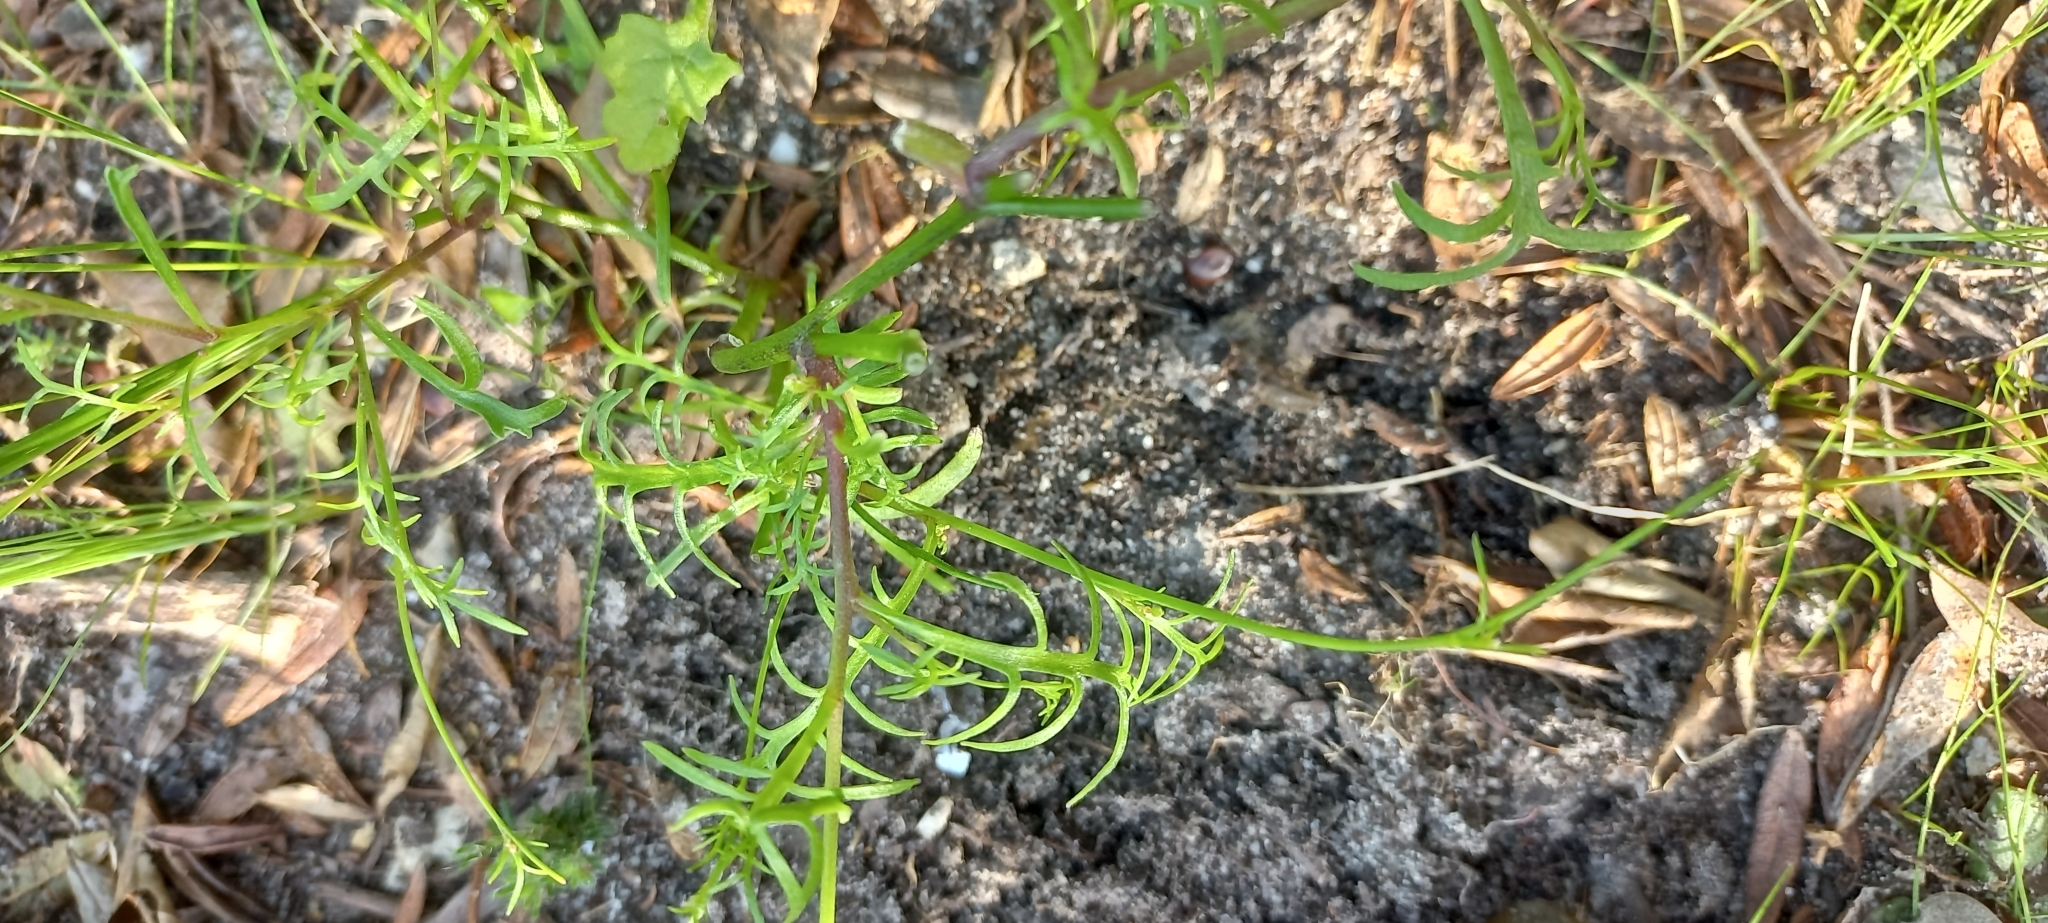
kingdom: Plantae
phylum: Tracheophyta
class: Magnoliopsida
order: Brassicales
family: Brassicaceae
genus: Heliophila
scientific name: Heliophila meyeri
